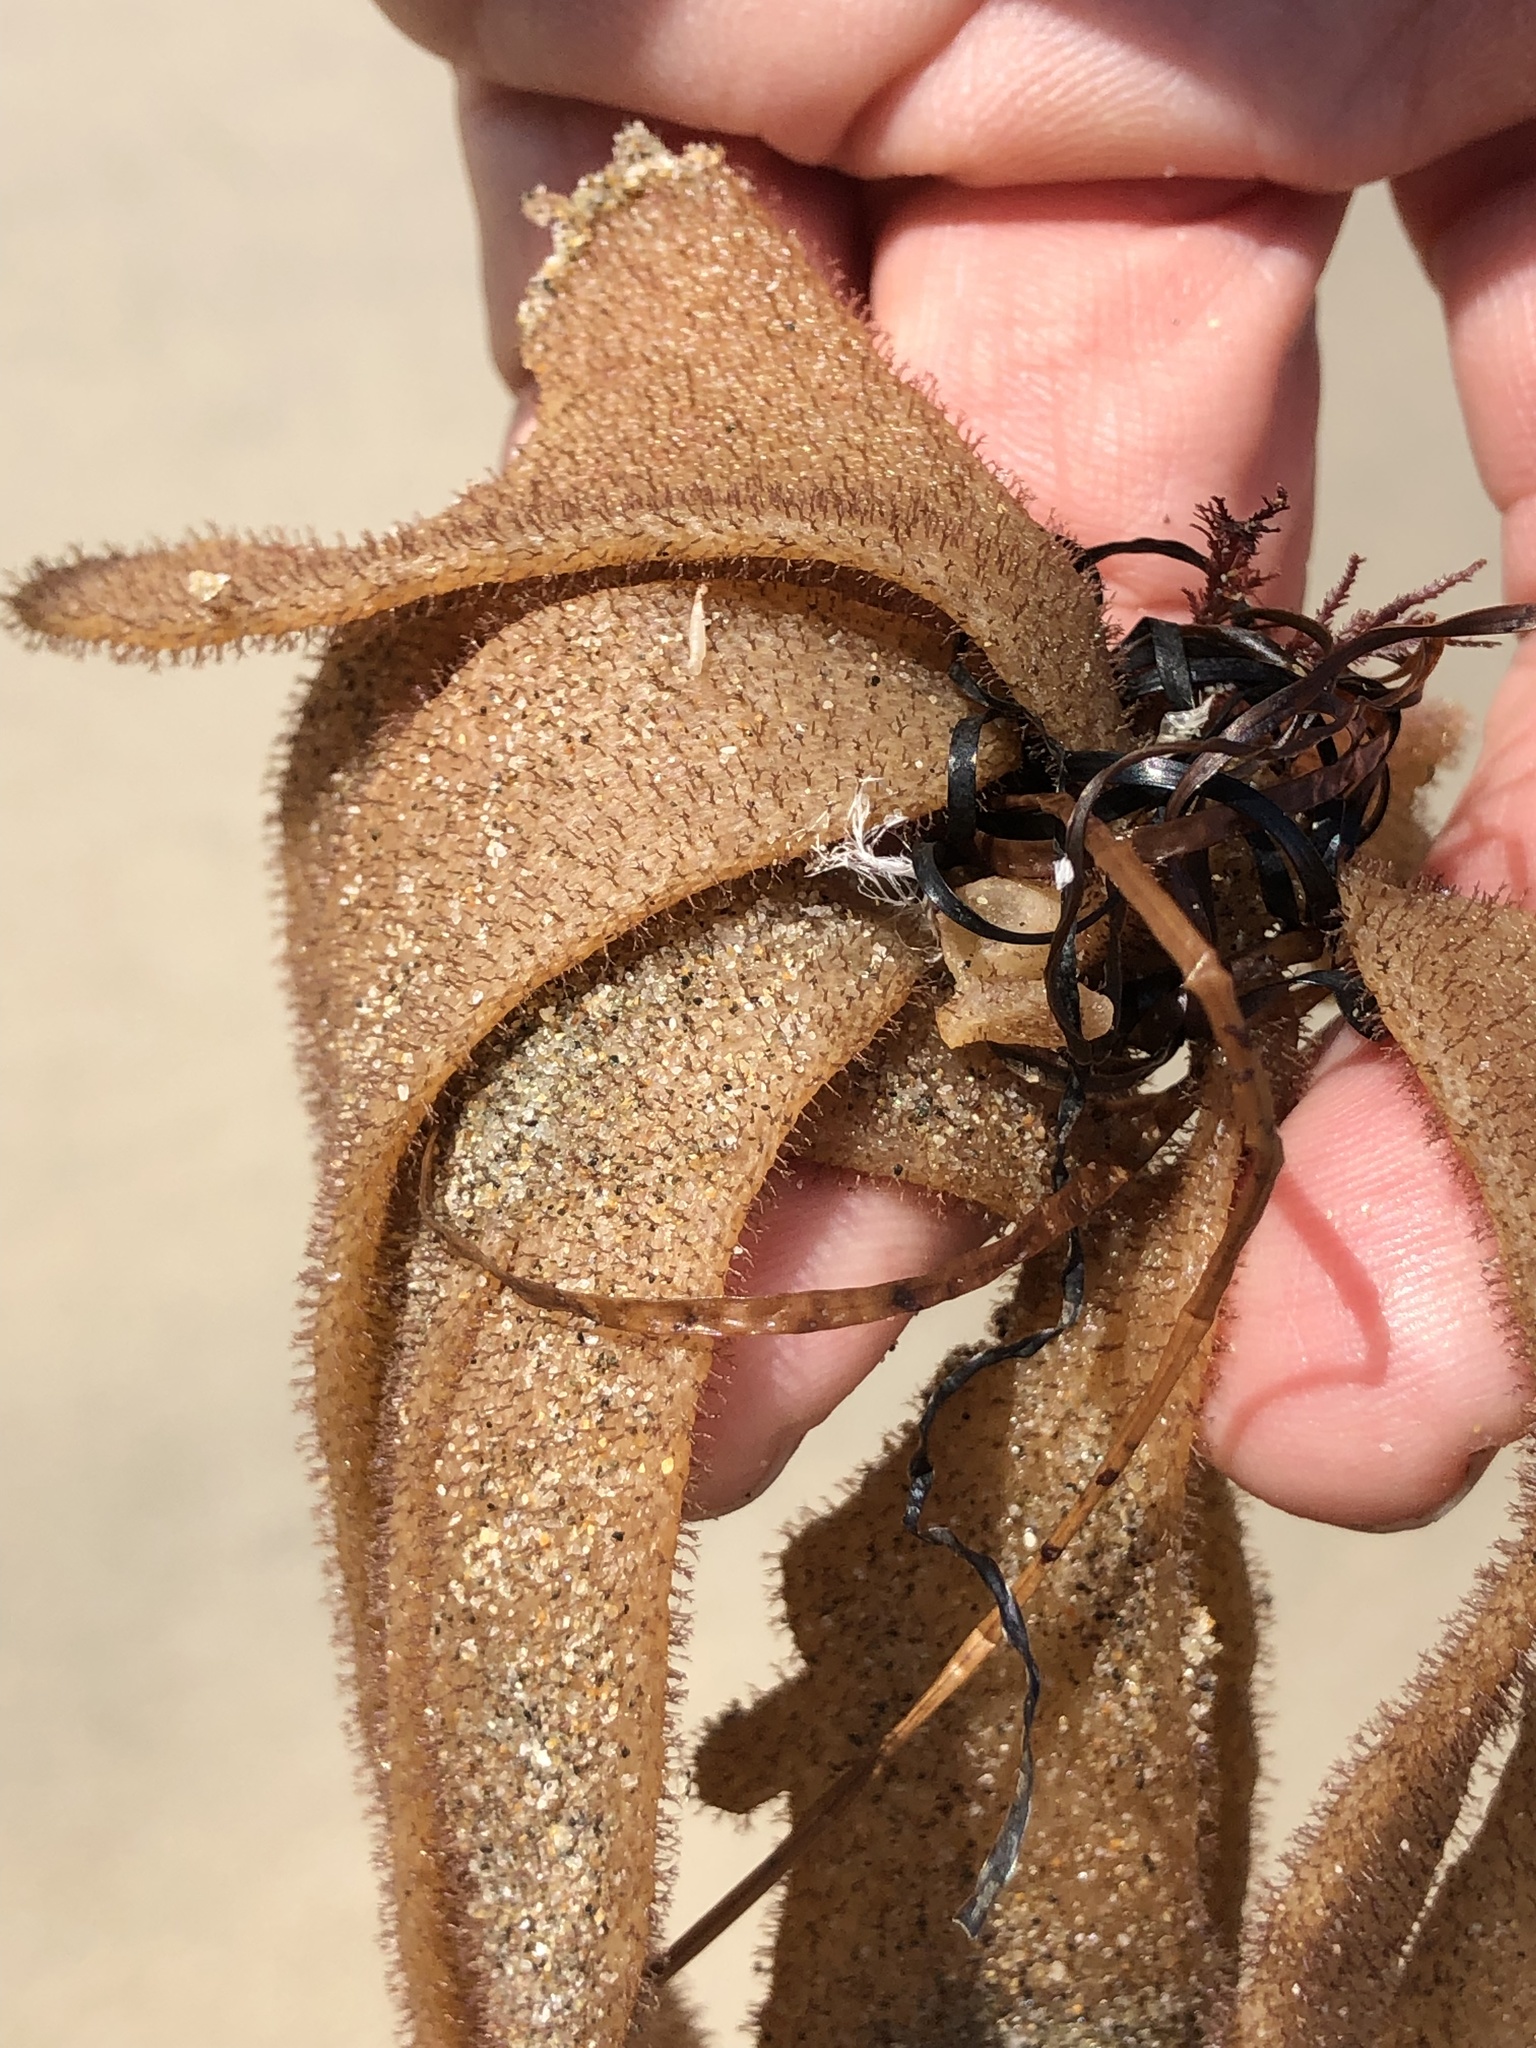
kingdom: Animalia
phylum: Bryozoa
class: Gymnolaemata
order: Ctenostomatida
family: Flustrellidridae
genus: Flustrellidra
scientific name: Flustrellidra corniculata
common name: Spiny leather bryozoan
